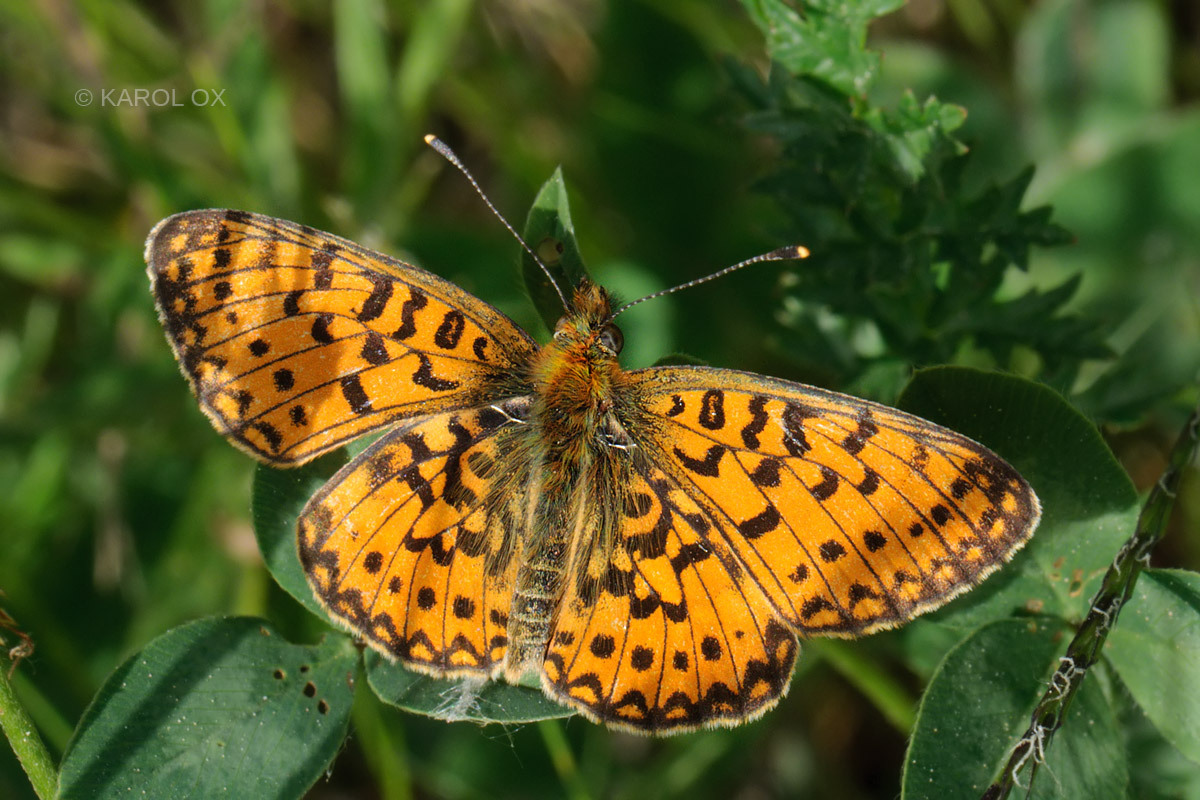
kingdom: Animalia
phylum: Arthropoda
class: Insecta
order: Lepidoptera
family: Nymphalidae
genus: Boloria
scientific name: Boloria selene
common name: Small pearl-bordered fritillary
